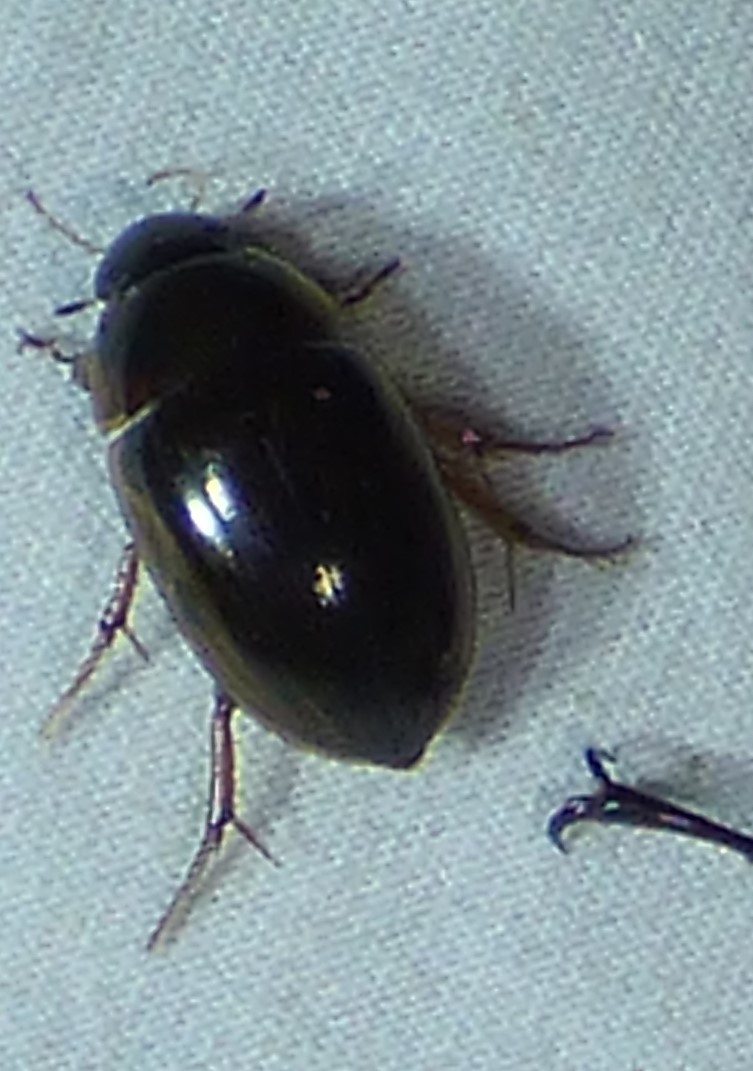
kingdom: Animalia
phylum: Arthropoda
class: Insecta
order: Coleoptera
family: Hydrophilidae
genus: Tropisternus
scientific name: Tropisternus collaris
